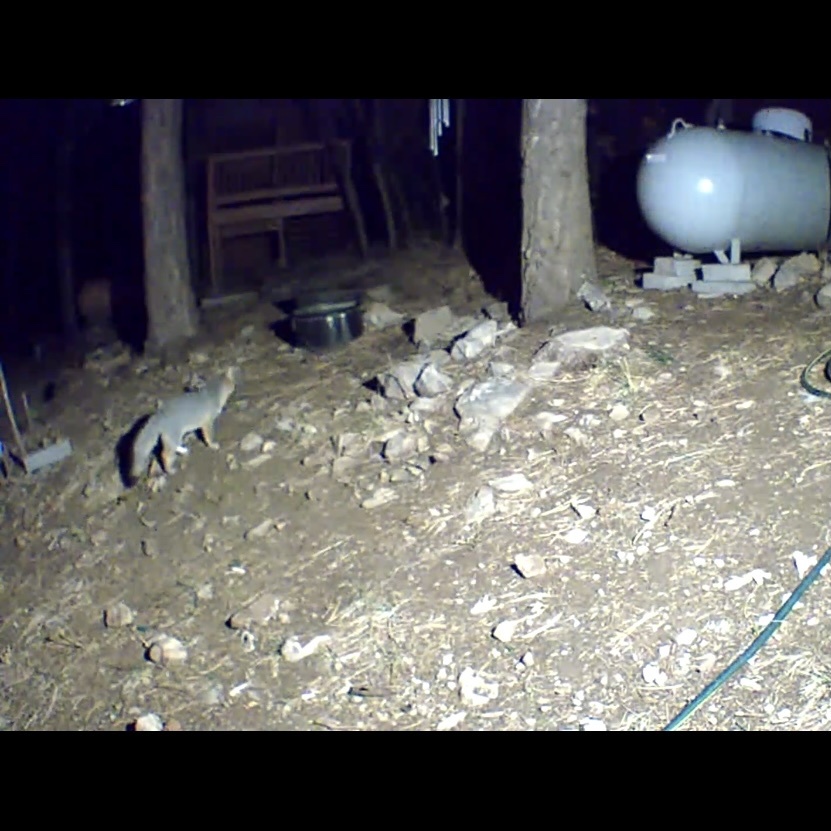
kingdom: Animalia
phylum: Chordata
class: Mammalia
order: Carnivora
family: Canidae
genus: Urocyon
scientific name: Urocyon cinereoargenteus
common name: Gray fox
